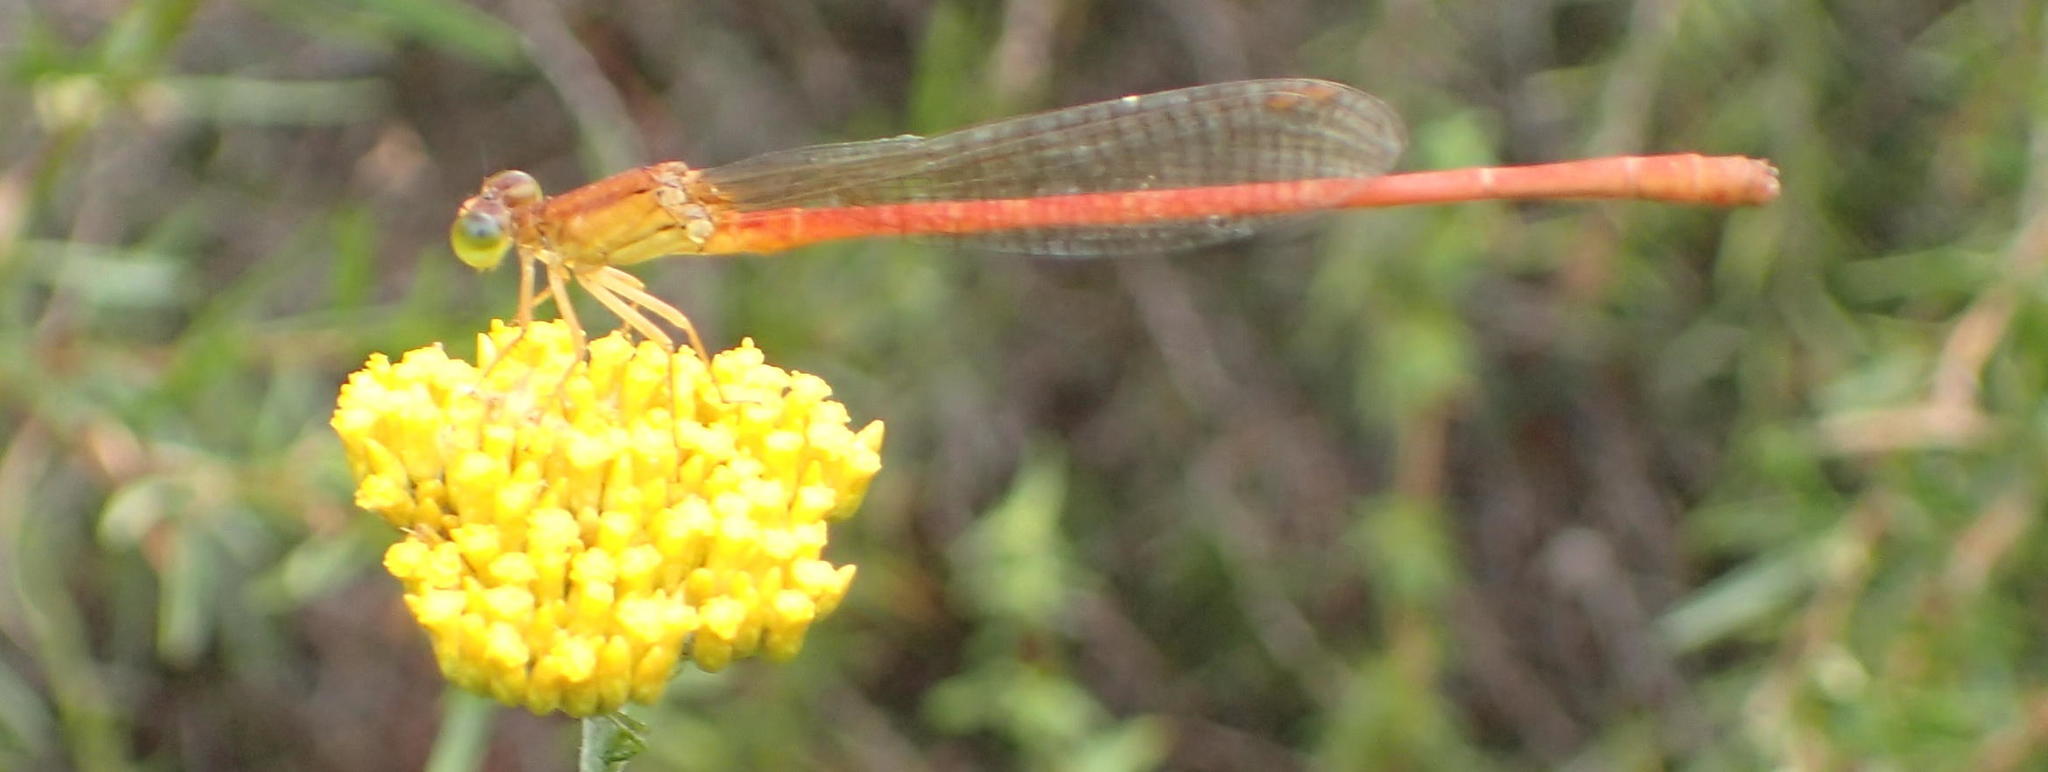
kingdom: Animalia
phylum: Arthropoda
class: Insecta
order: Odonata
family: Coenagrionidae
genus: Ceriagrion
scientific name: Ceriagrion glabrum
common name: Common pond damsel
